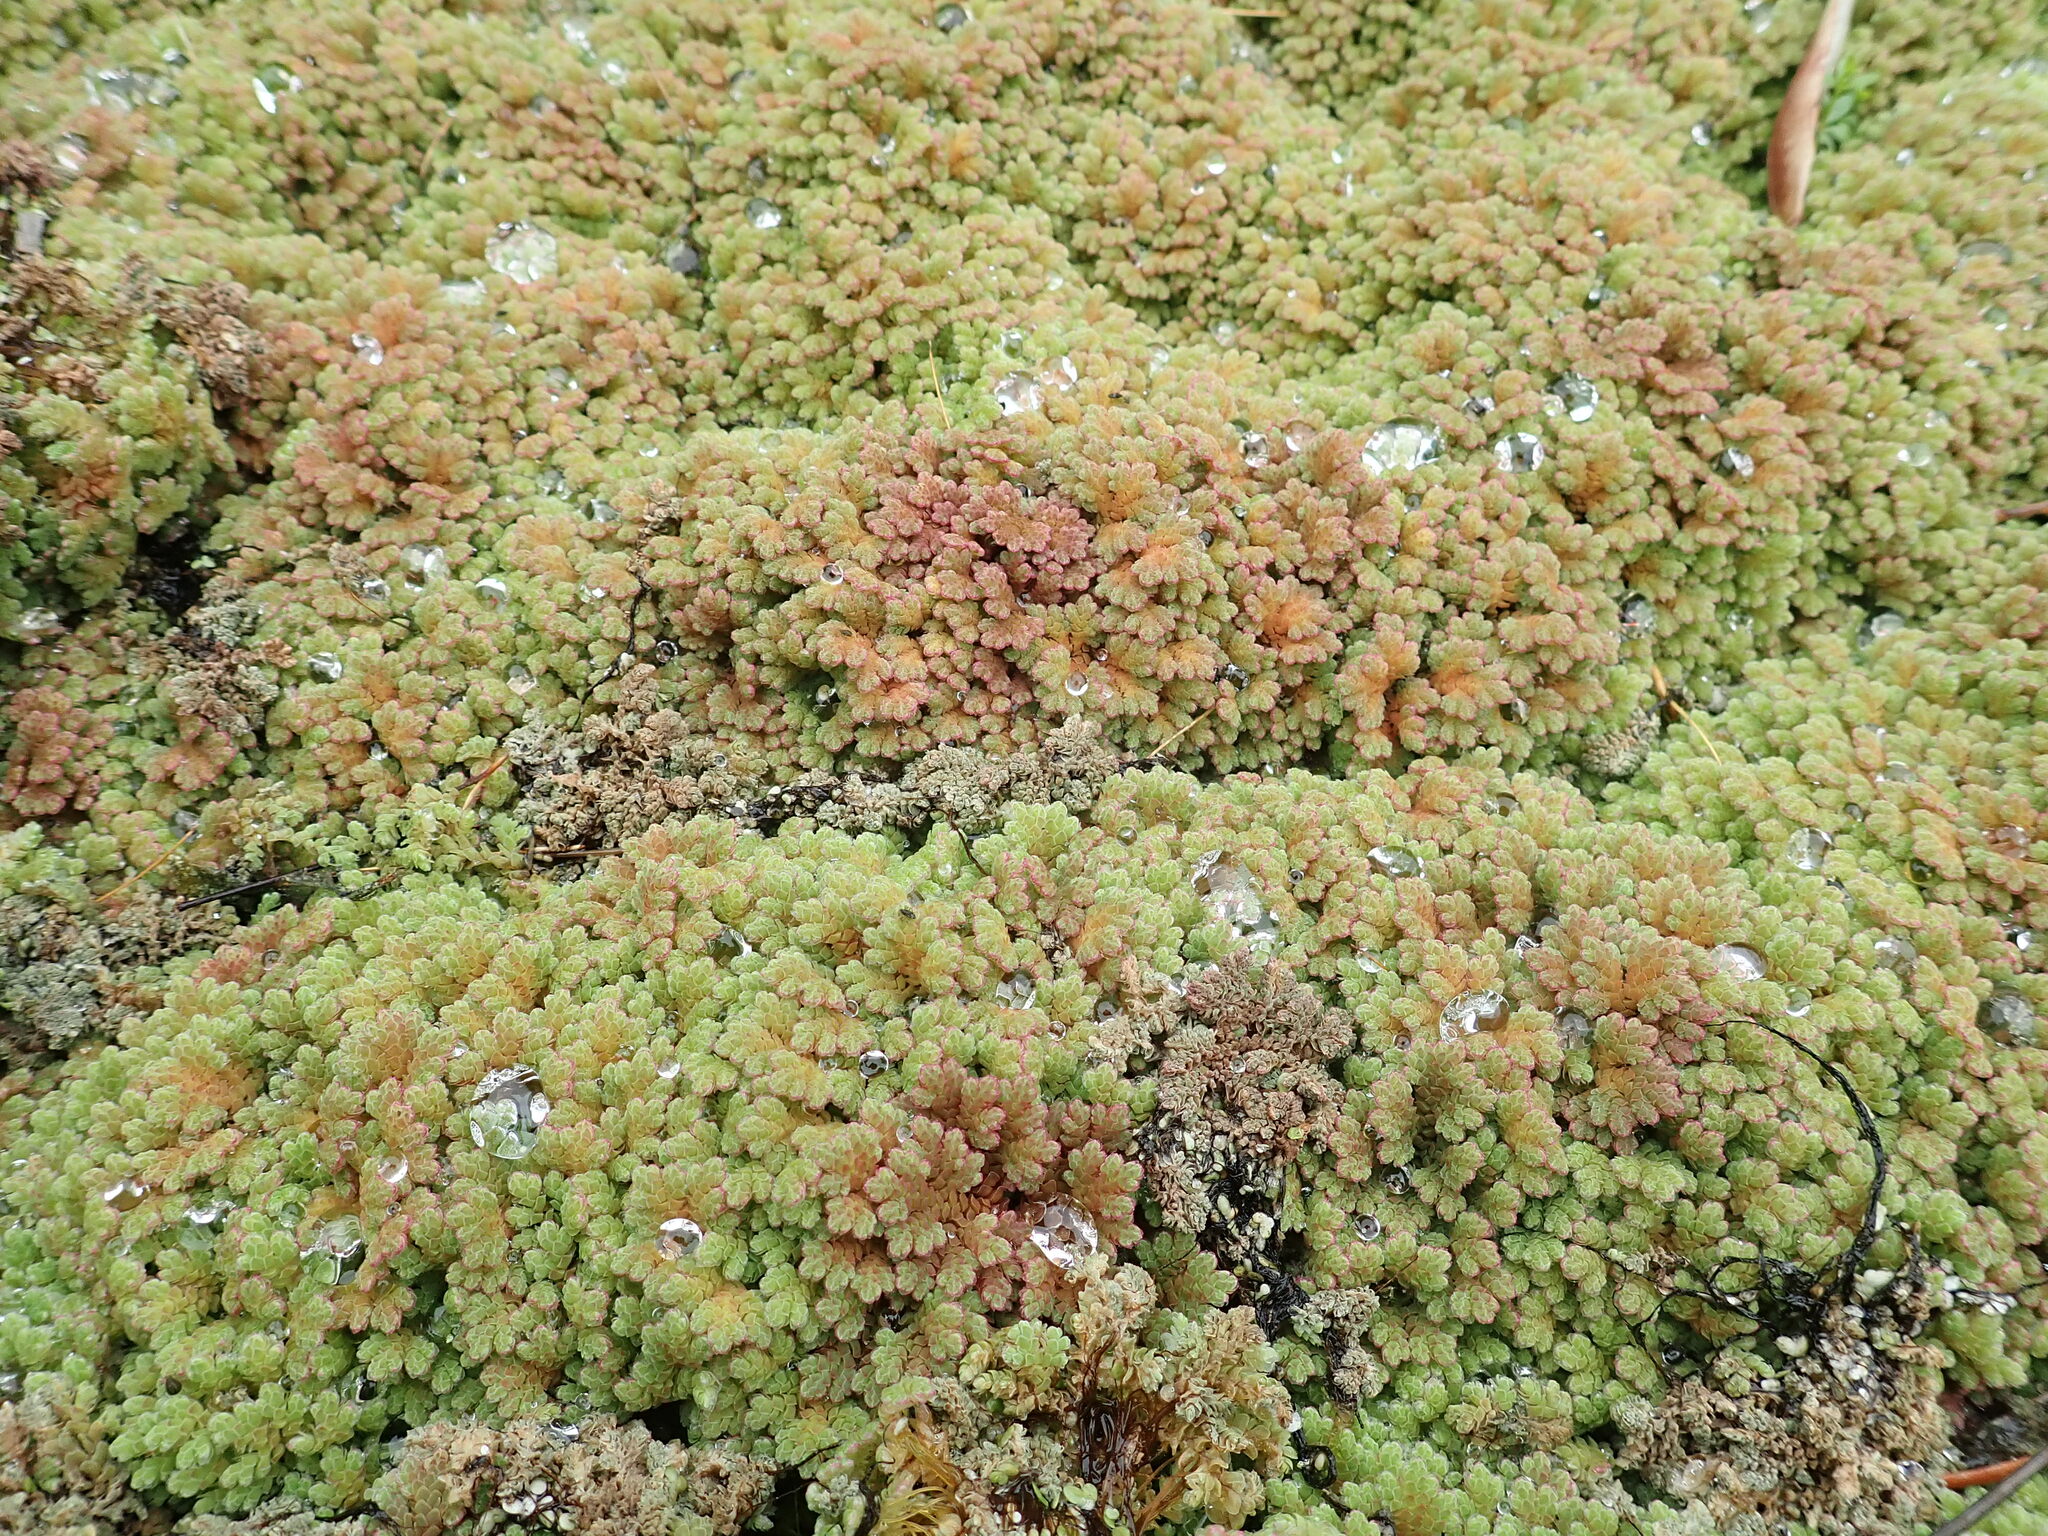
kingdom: Plantae
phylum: Tracheophyta
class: Polypodiopsida
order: Salviniales
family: Salviniaceae
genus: Azolla
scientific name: Azolla rubra
